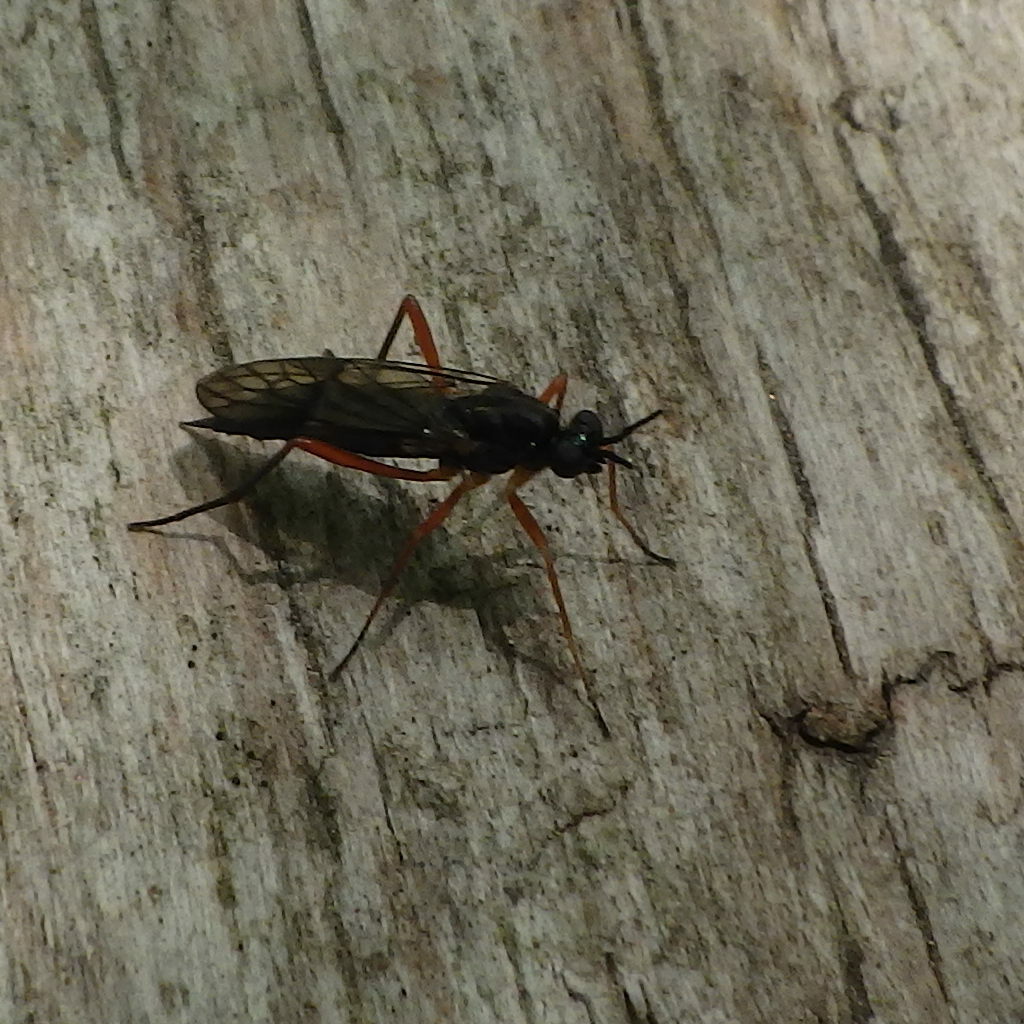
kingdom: Animalia
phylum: Arthropoda
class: Insecta
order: Diptera
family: Xylophagidae
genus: Xylophagus
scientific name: Xylophagus reflectens
